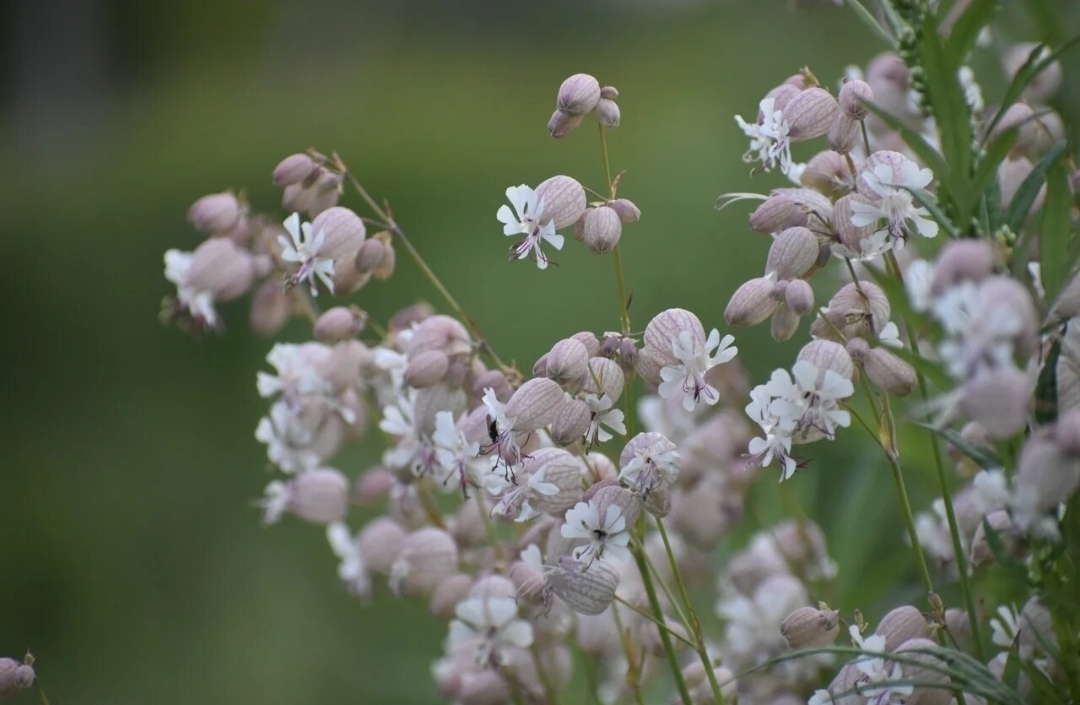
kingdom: Plantae
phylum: Tracheophyta
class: Magnoliopsida
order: Caryophyllales
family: Caryophyllaceae
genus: Silene
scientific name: Silene vulgaris
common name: Bladder campion
